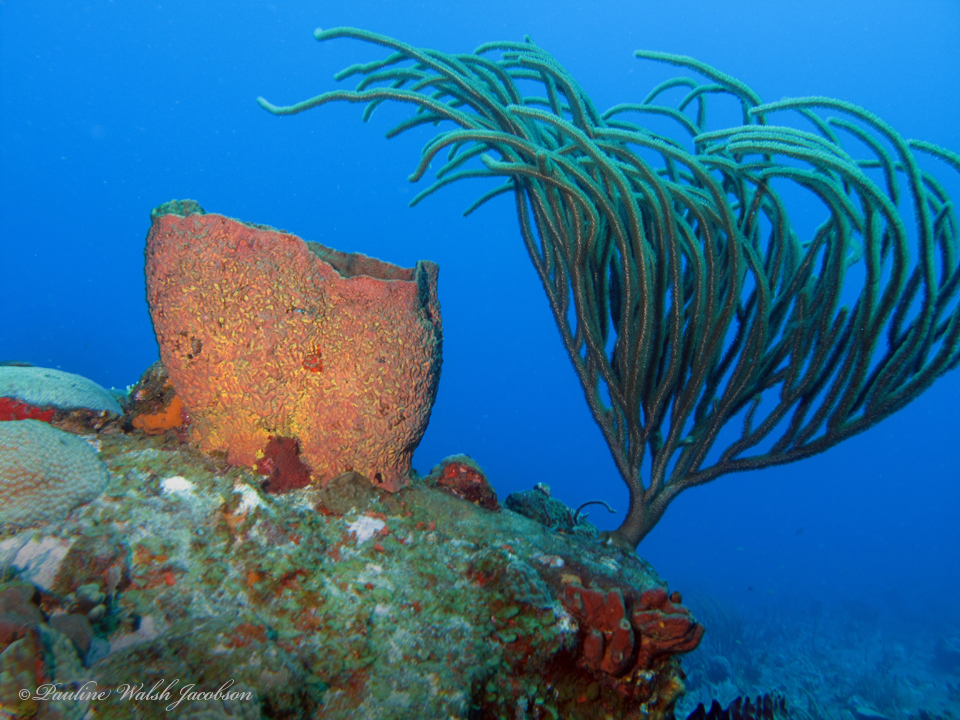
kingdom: Animalia
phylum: Porifera
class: Demospongiae
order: Verongiida
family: Aplysinidae
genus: Verongula
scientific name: Verongula gigantea
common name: Netted barrel sponge
